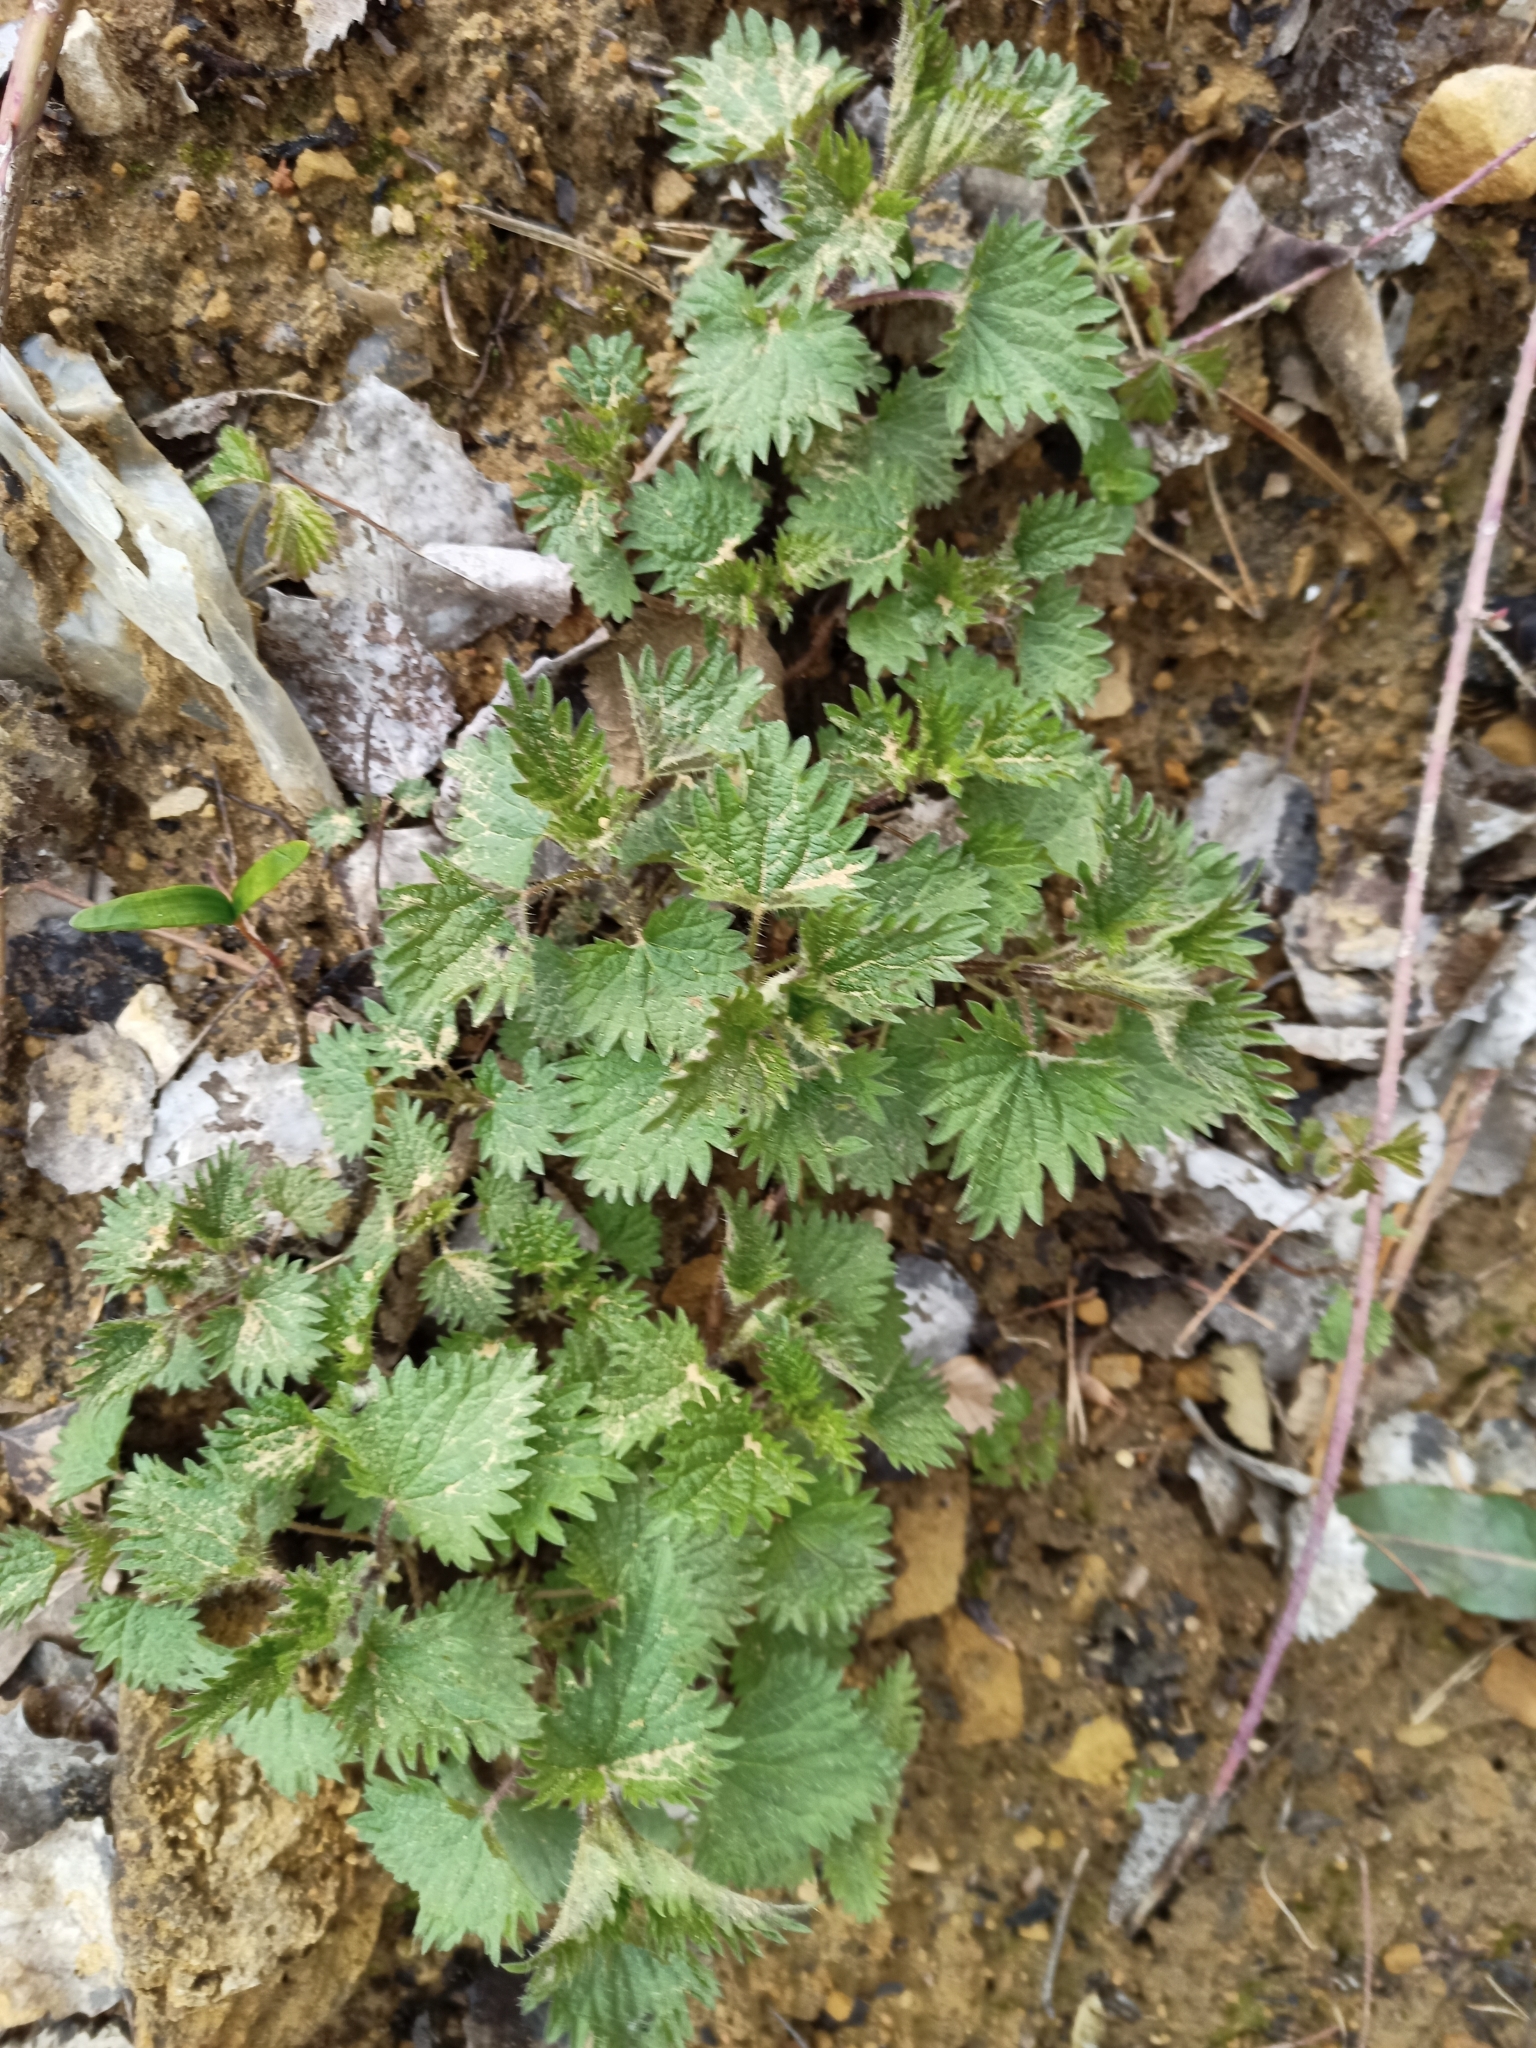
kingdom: Plantae
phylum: Tracheophyta
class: Magnoliopsida
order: Rosales
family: Urticaceae
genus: Urtica
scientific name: Urtica dioica
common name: Common nettle
